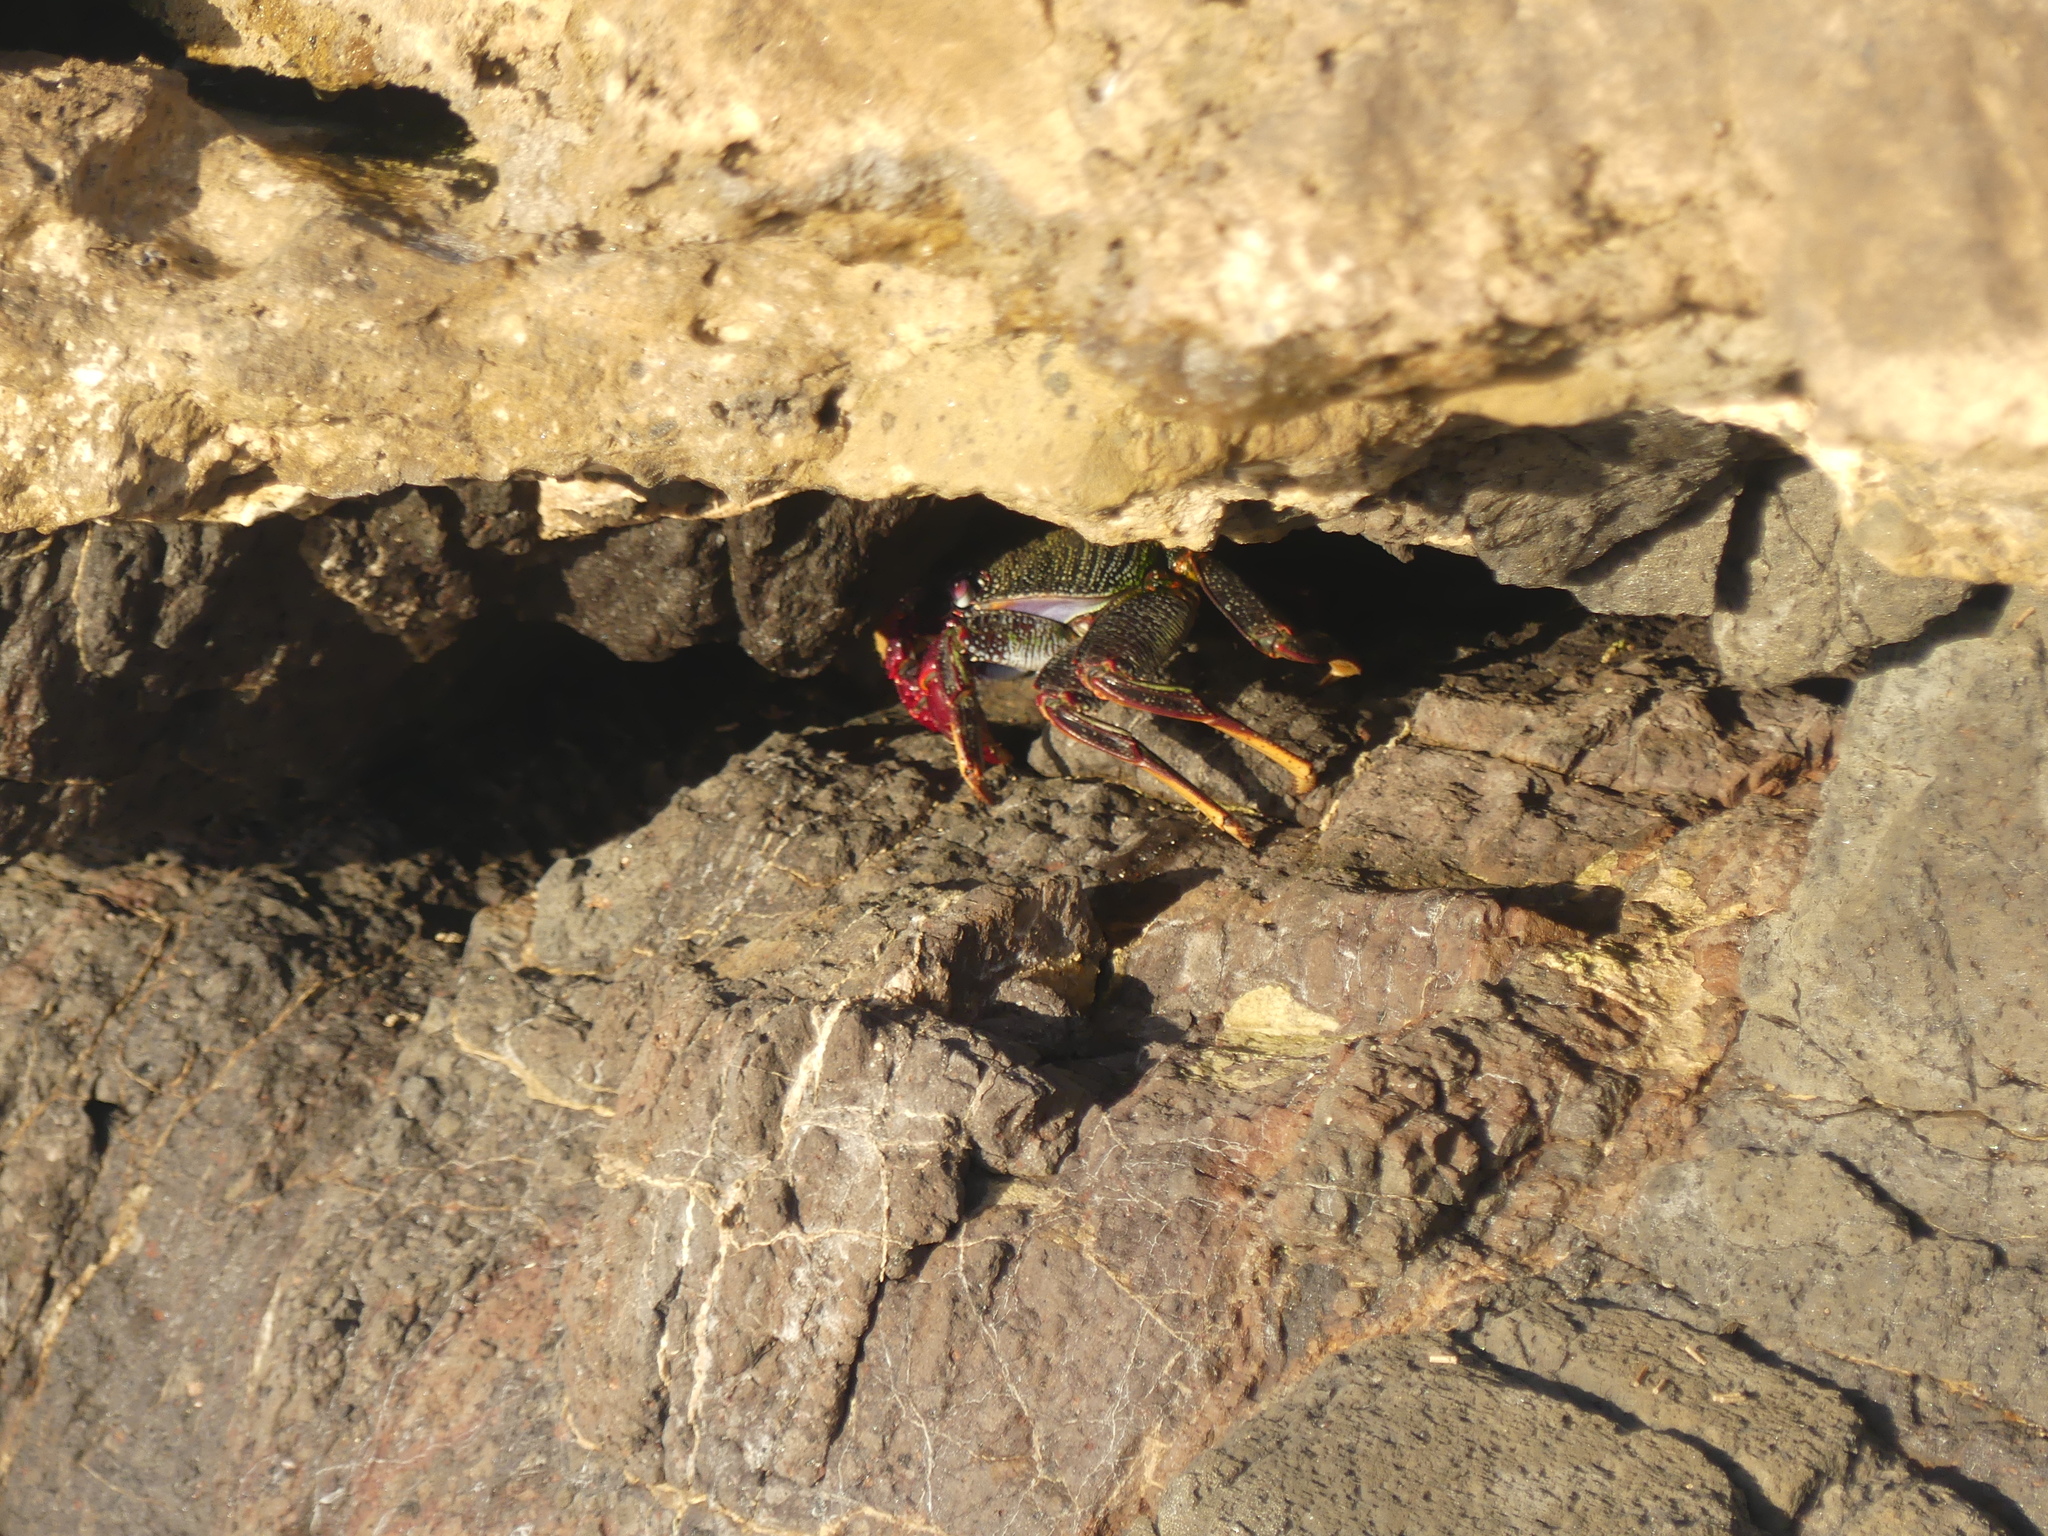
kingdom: Animalia
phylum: Arthropoda
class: Malacostraca
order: Decapoda
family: Grapsidae
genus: Grapsus
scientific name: Grapsus adscensionis
